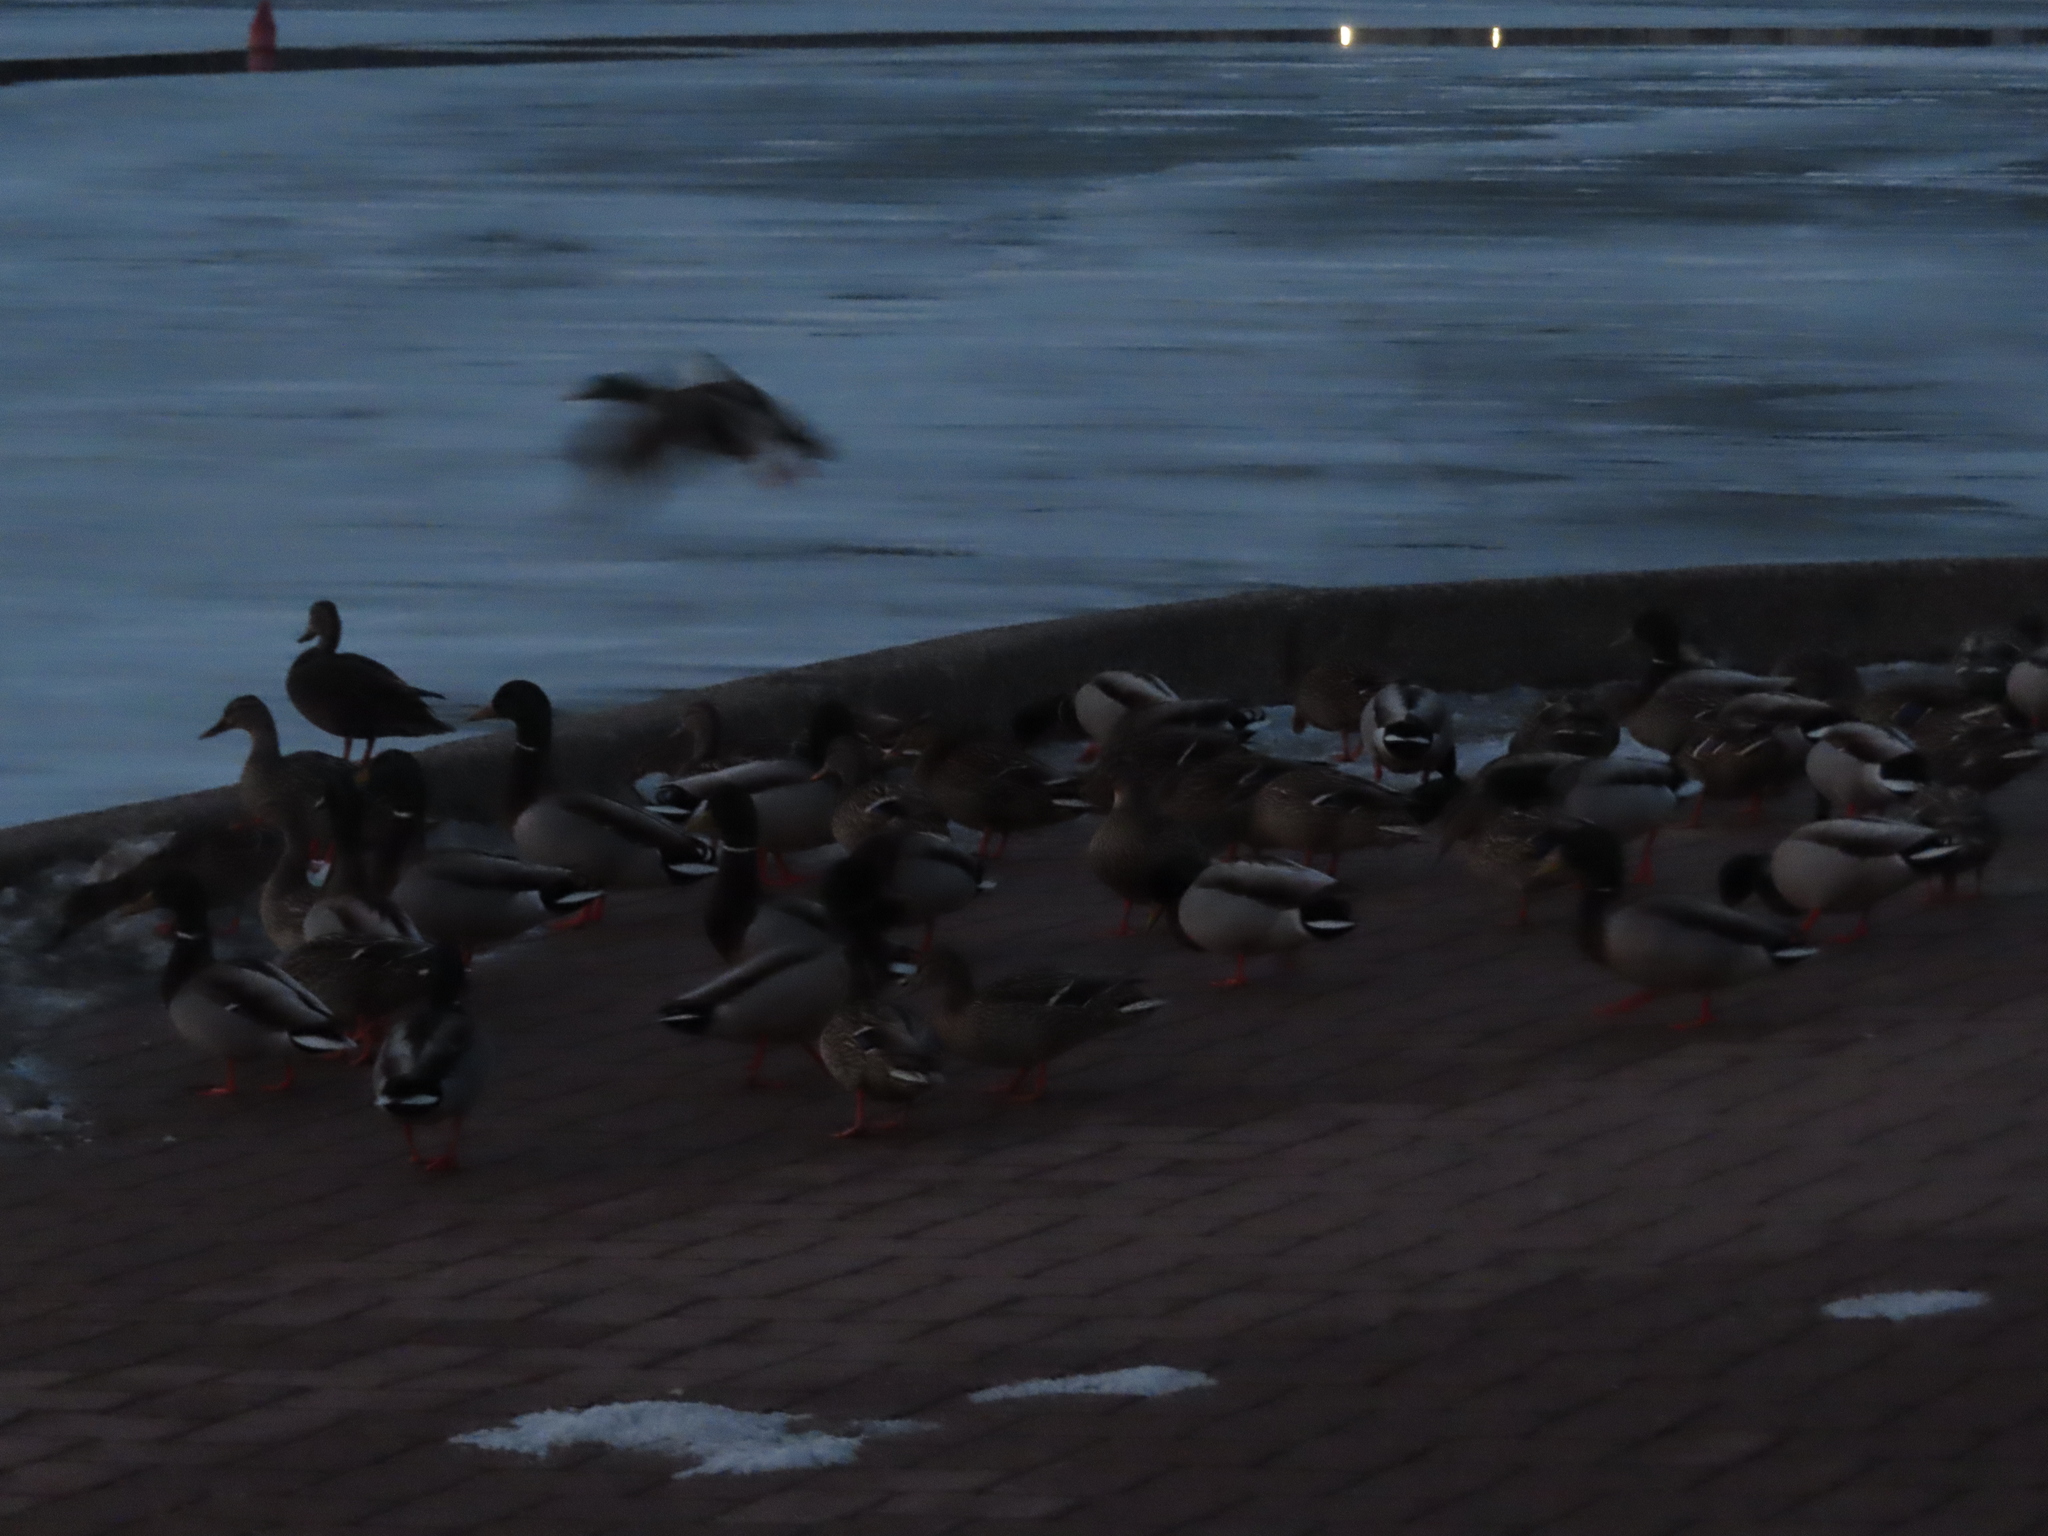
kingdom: Animalia
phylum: Chordata
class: Aves
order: Anseriformes
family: Anatidae
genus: Anas
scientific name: Anas platyrhynchos
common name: Mallard
